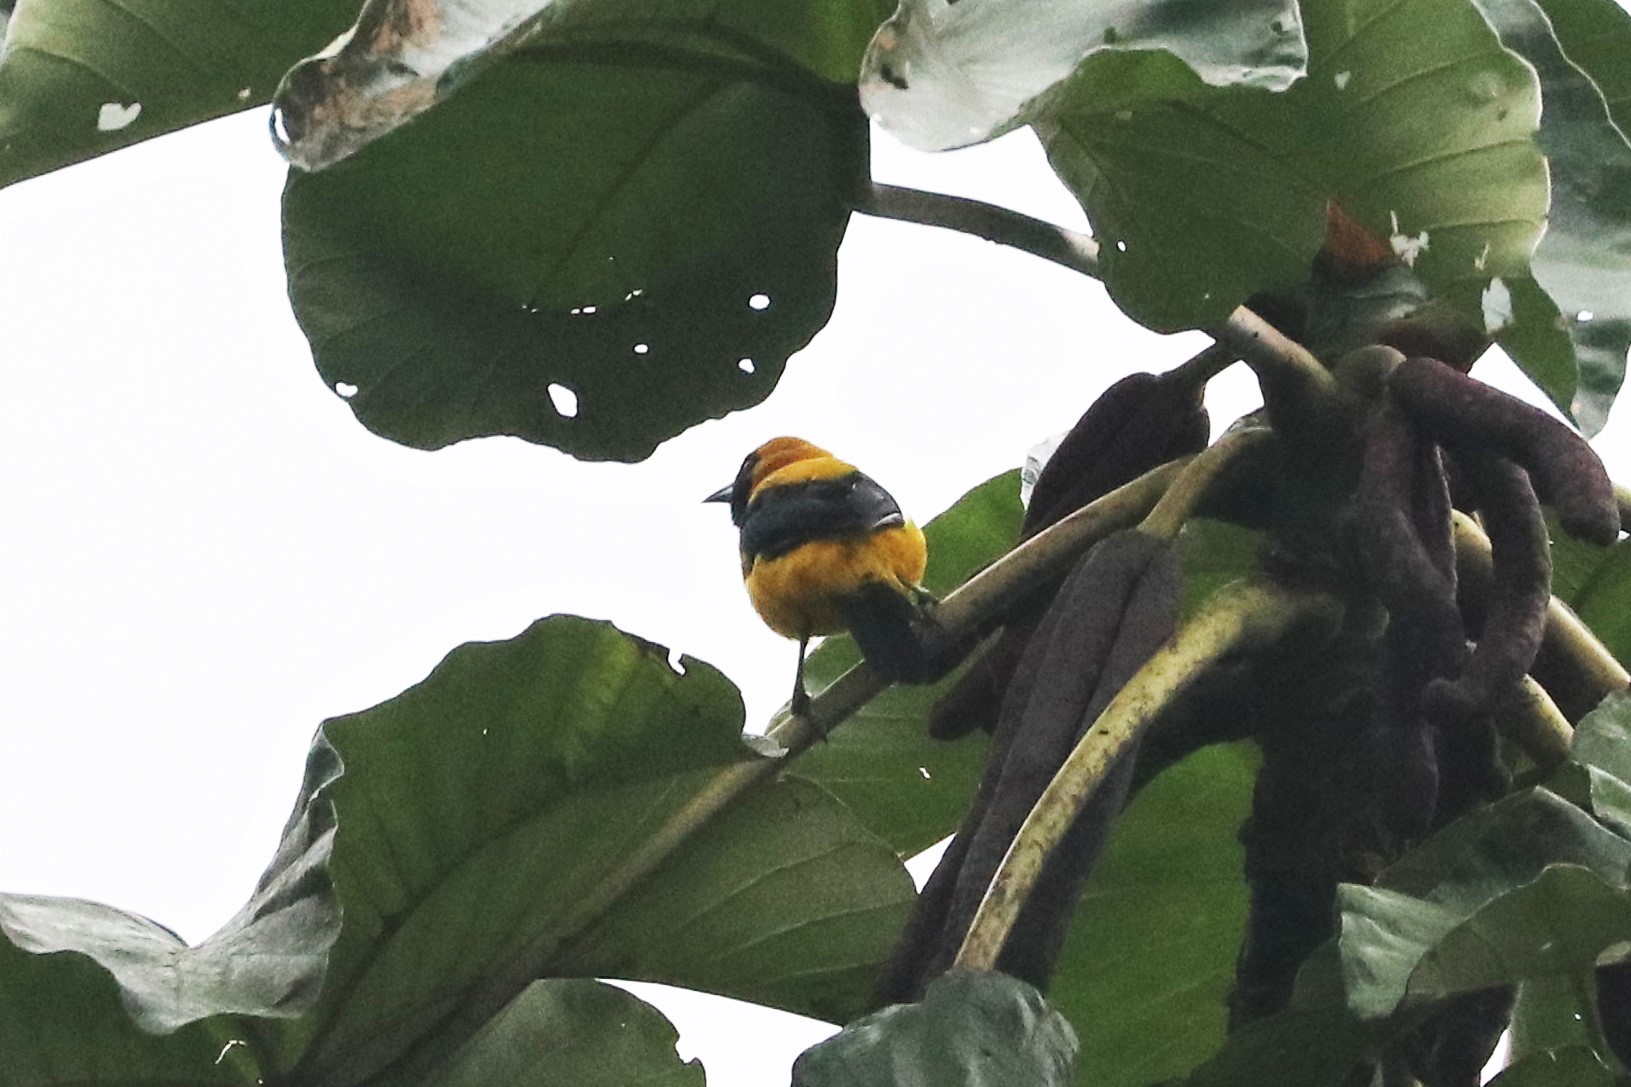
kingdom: Animalia
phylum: Chordata
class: Aves
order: Passeriformes
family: Icteridae
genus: Icterus
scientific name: Icterus chrysater
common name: Yellow-backed oriole
